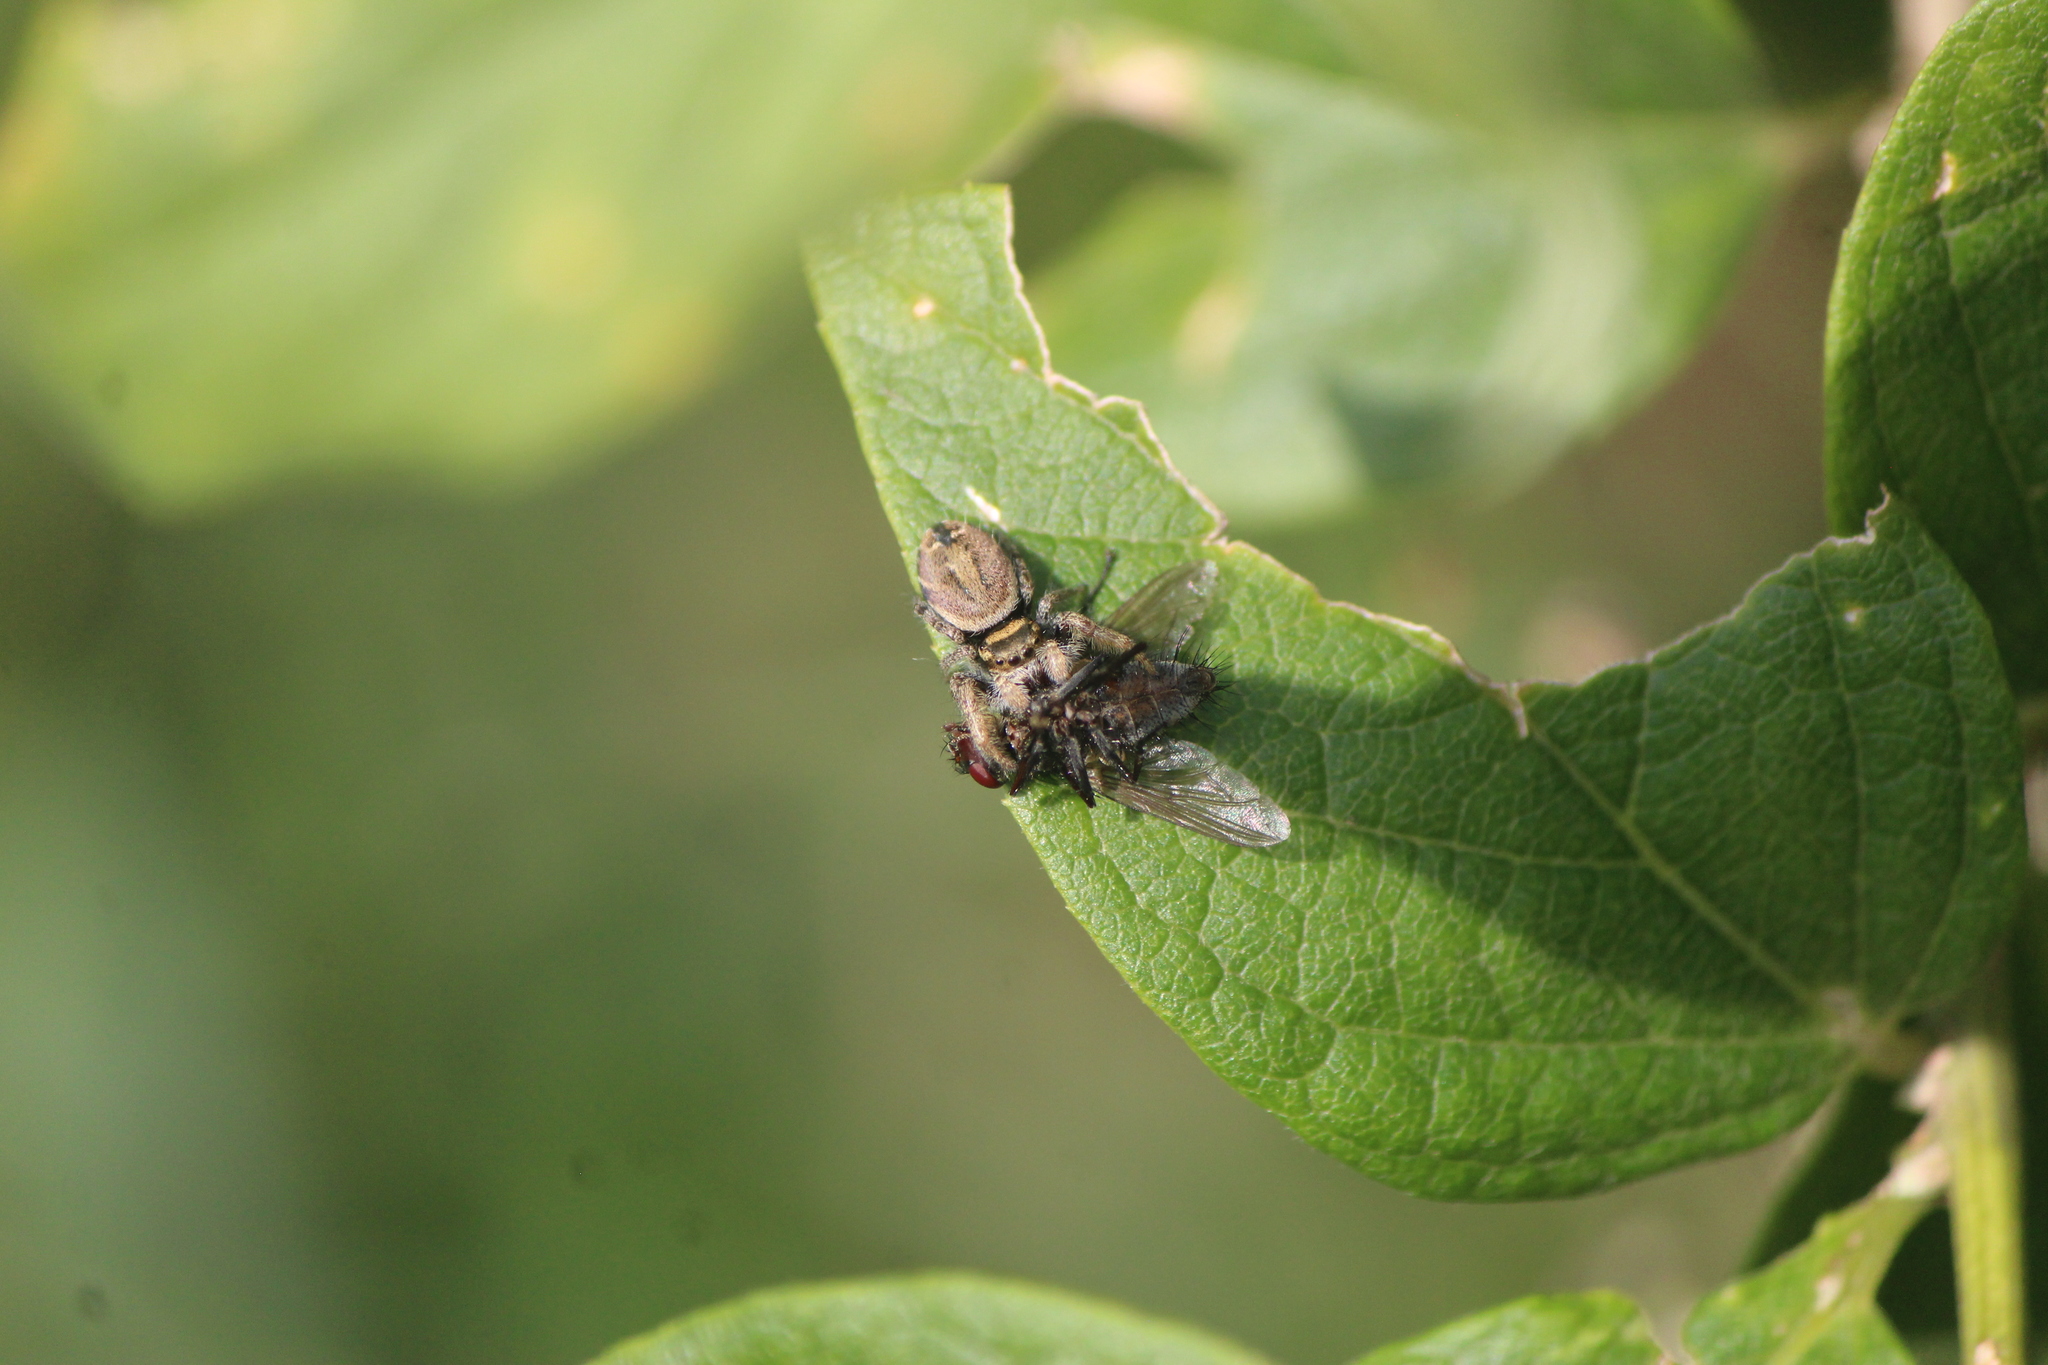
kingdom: Animalia
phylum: Arthropoda
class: Arachnida
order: Araneae
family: Salticidae
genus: Phidippus
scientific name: Phidippus arizonensis
